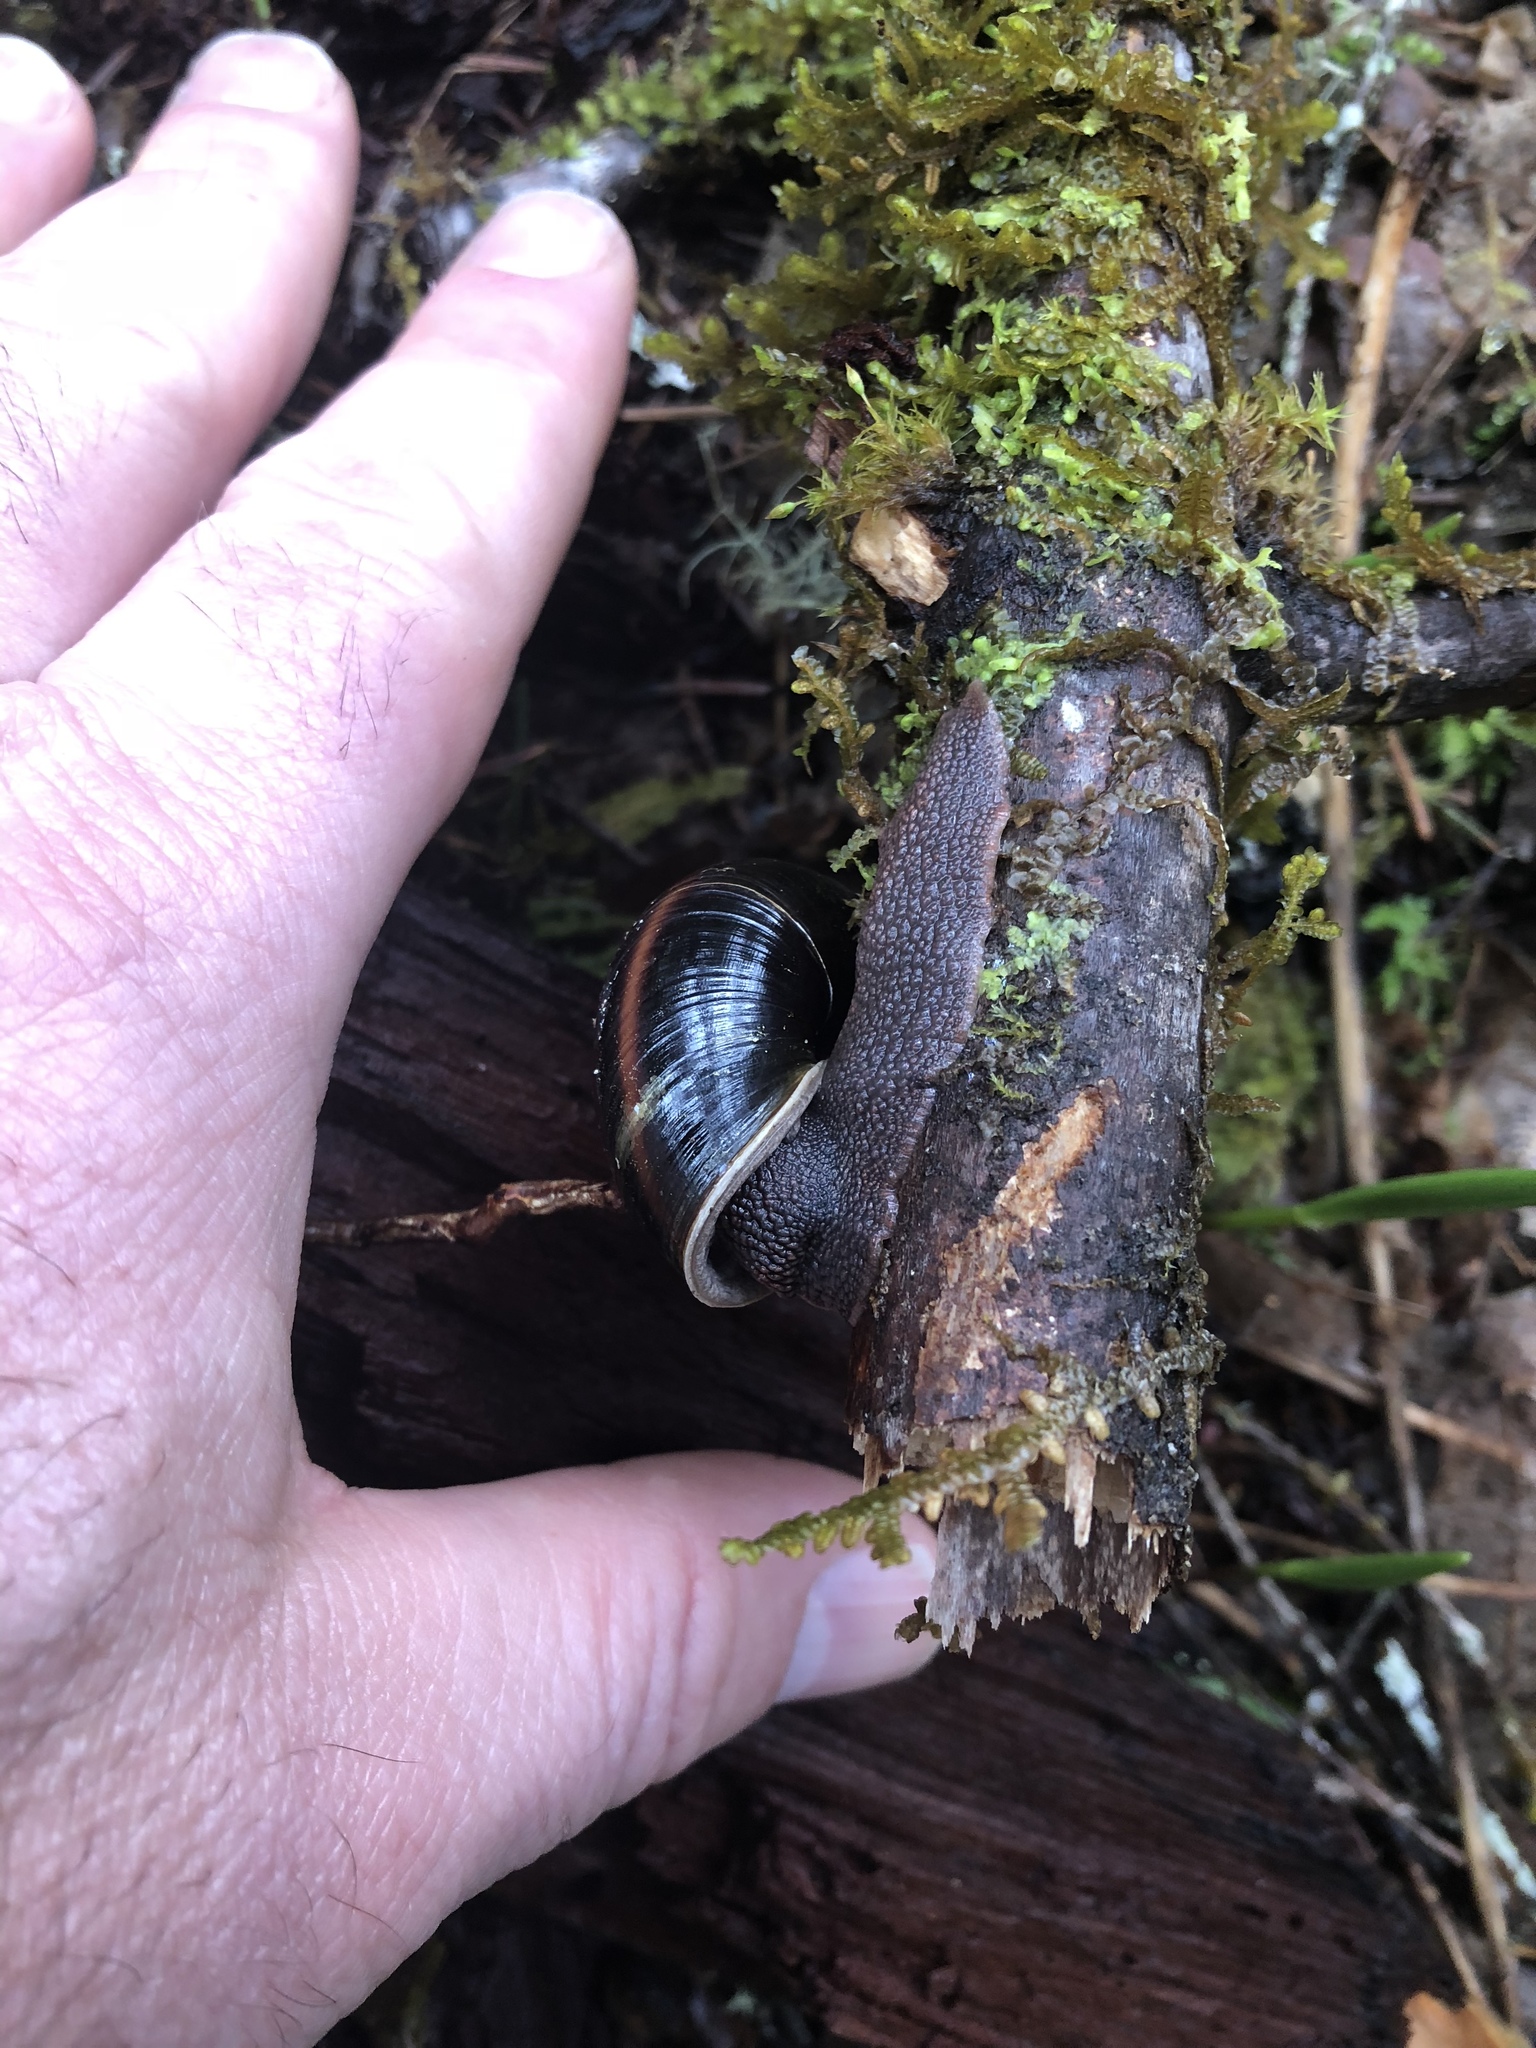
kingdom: Animalia
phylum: Mollusca
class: Gastropoda
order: Stylommatophora
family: Xanthonychidae
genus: Monadenia
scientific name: Monadenia fidelis
